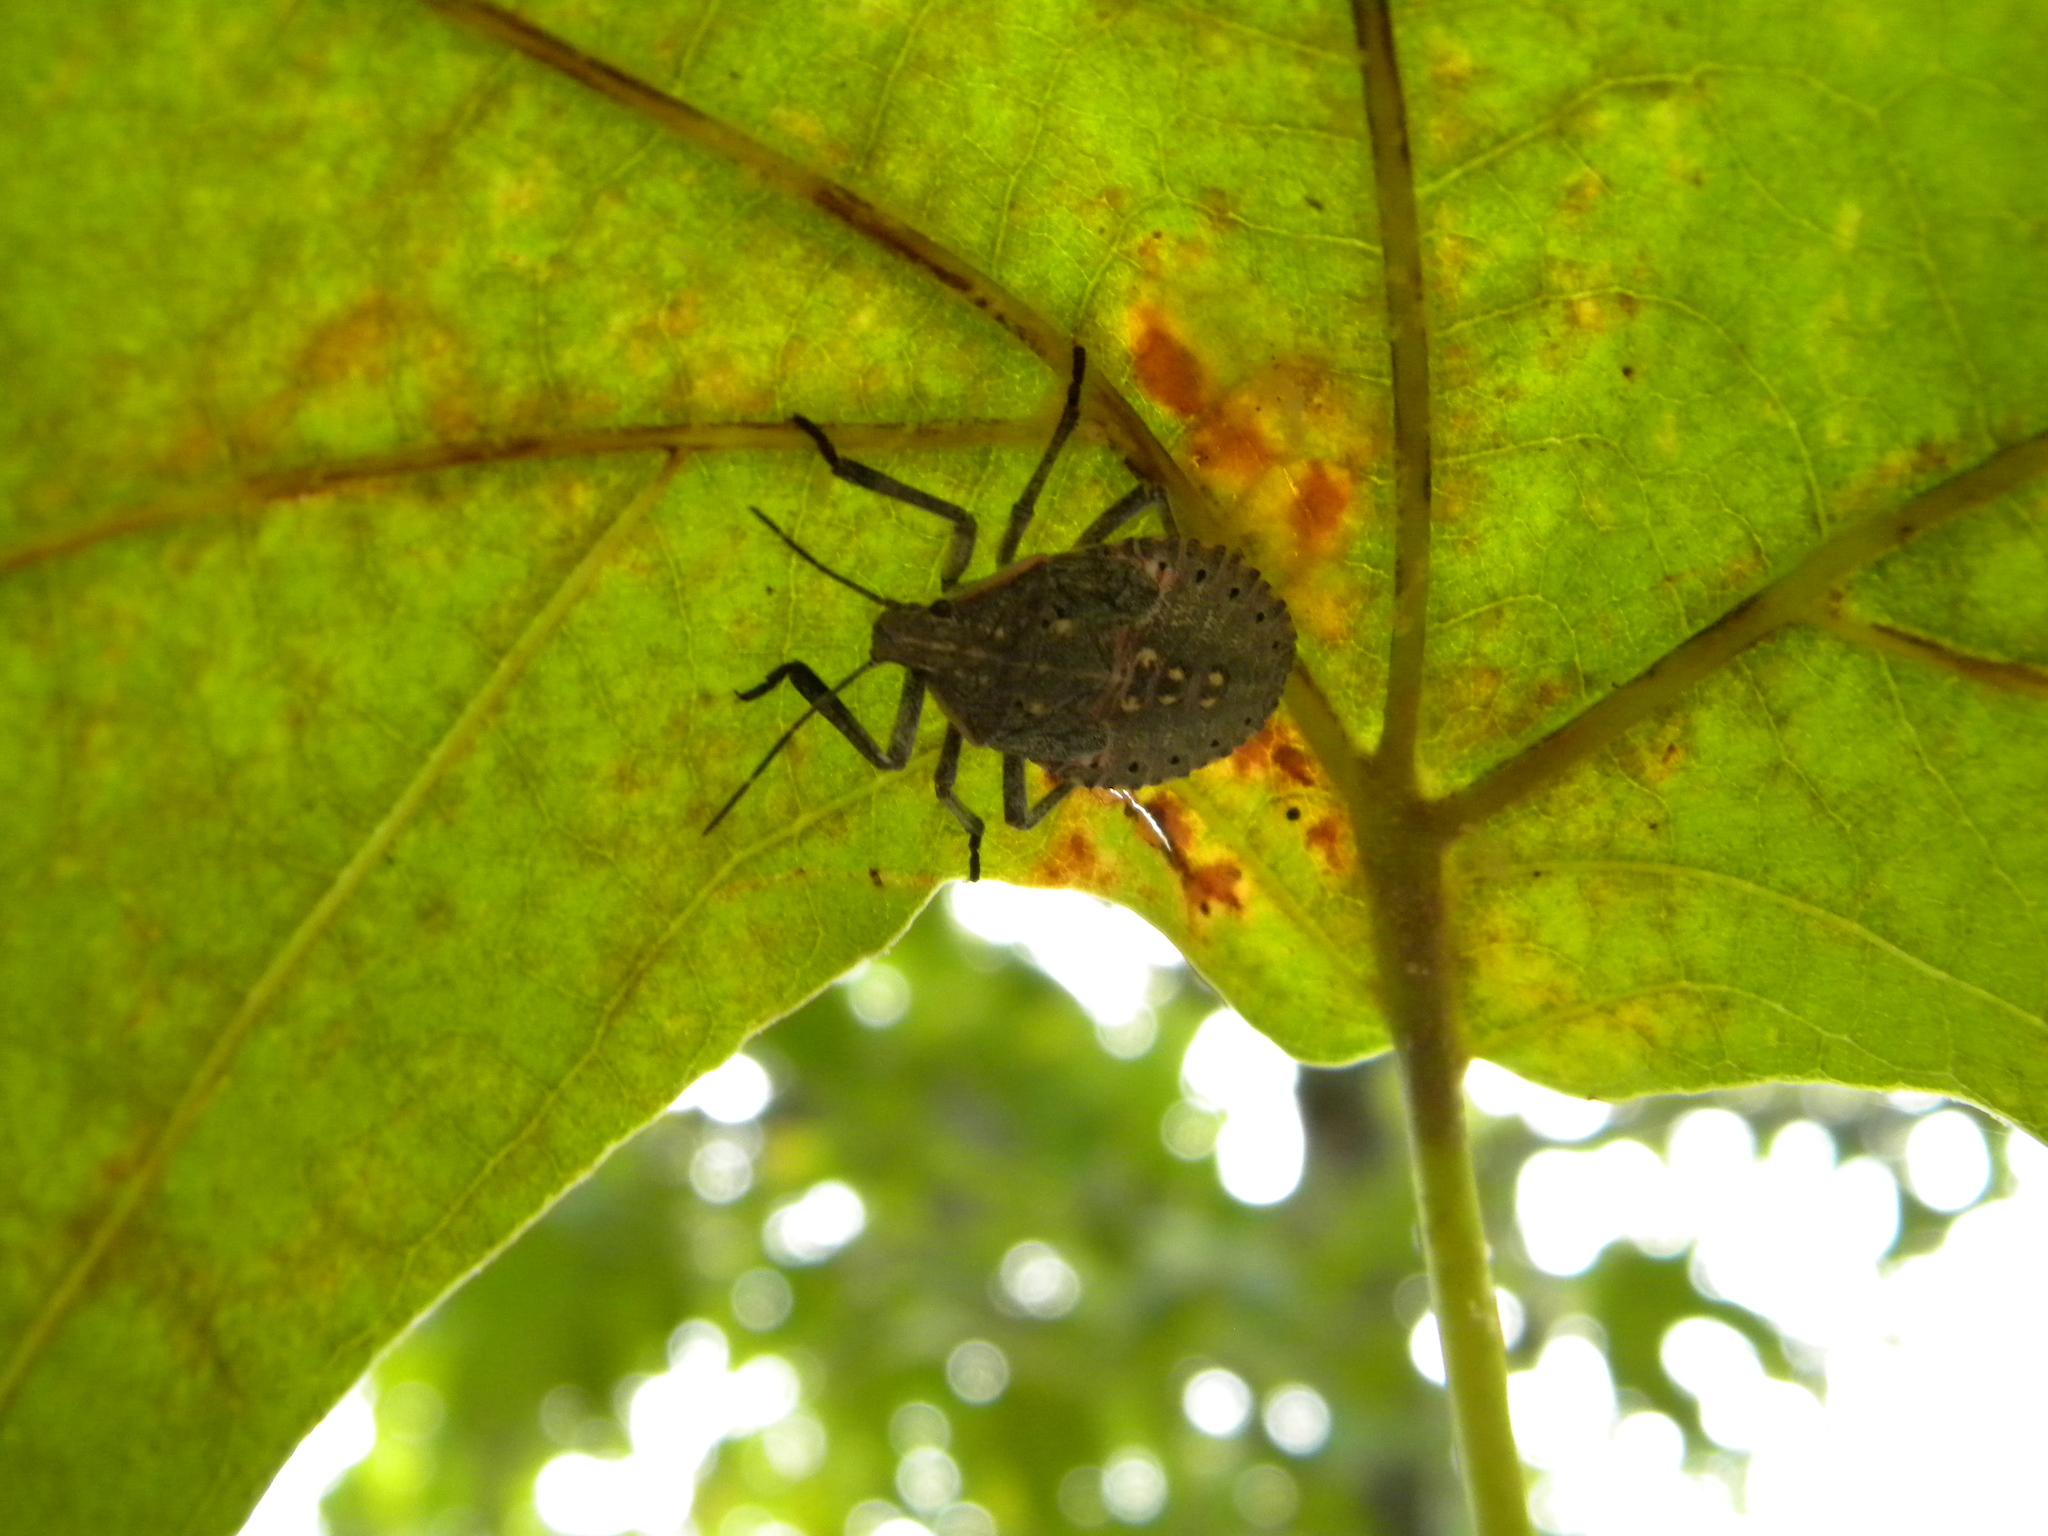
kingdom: Animalia
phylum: Arthropoda
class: Insecta
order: Hemiptera
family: Pentatomidae
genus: Apodiphus
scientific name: Apodiphus amygdali
